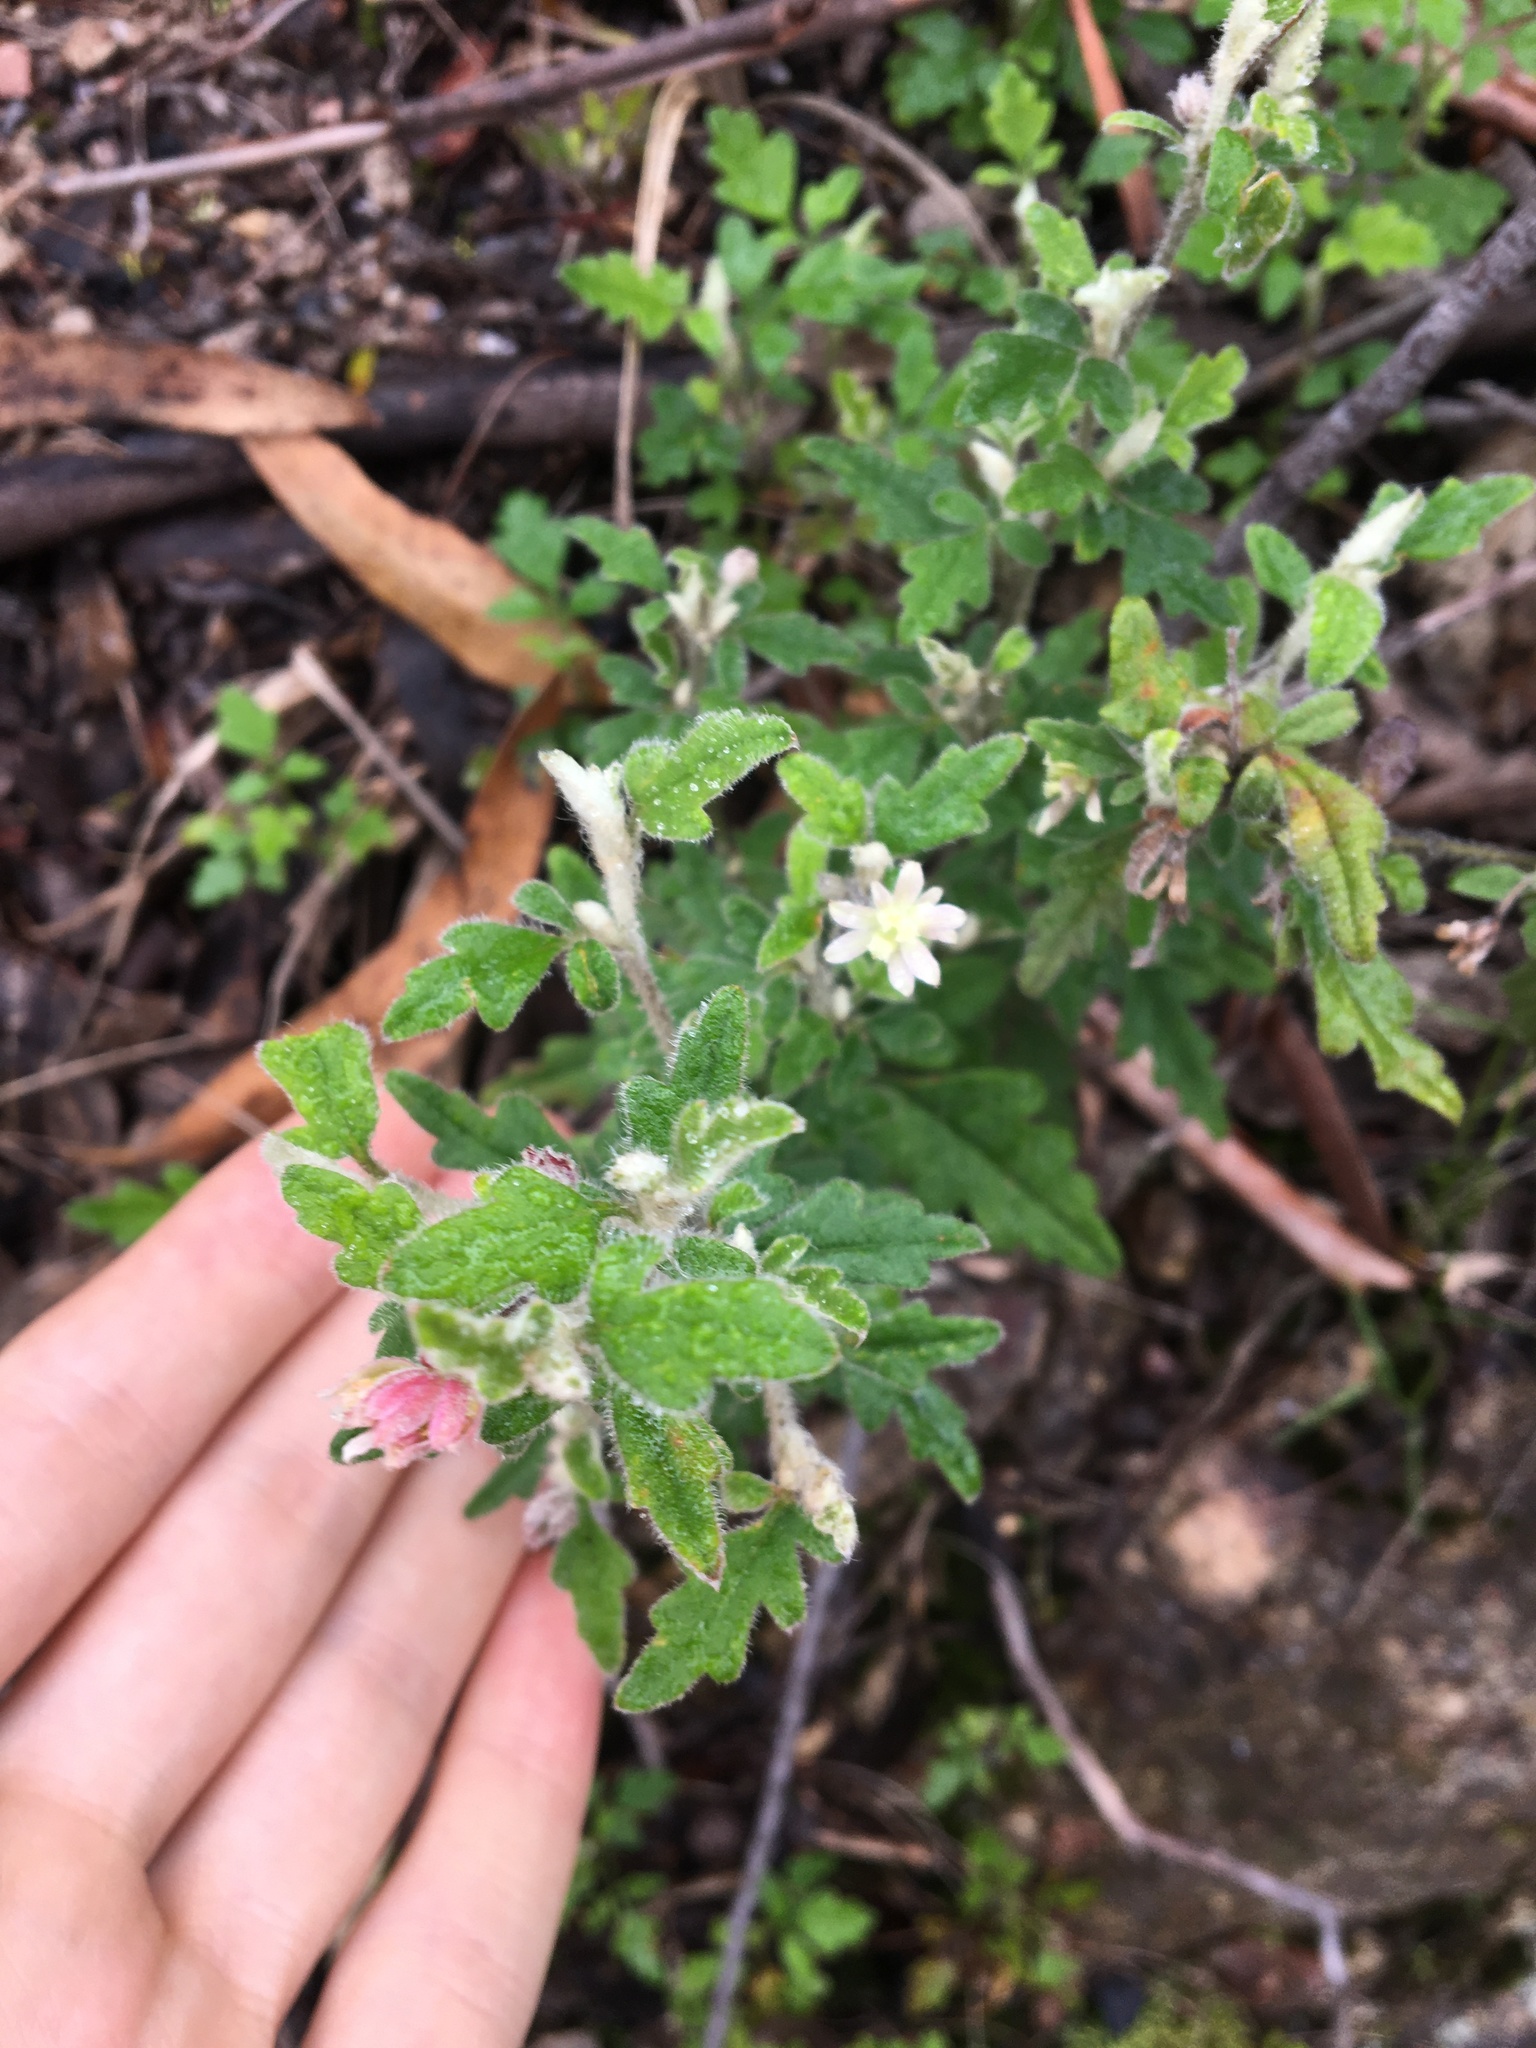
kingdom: Plantae
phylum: Tracheophyta
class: Magnoliopsida
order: Apiales
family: Apiaceae
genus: Xanthosia
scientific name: Xanthosia pilosa
